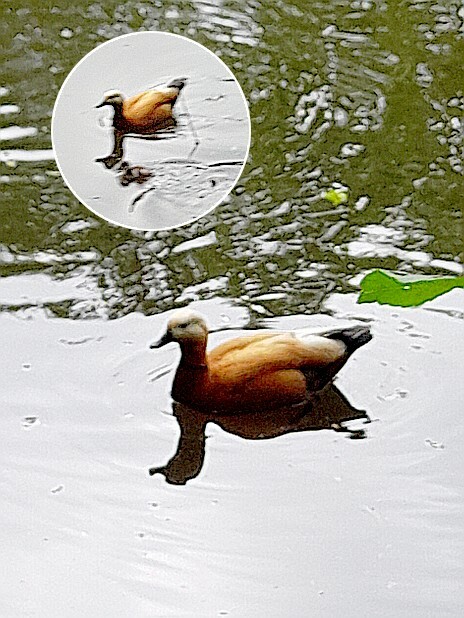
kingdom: Animalia
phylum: Chordata
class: Aves
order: Anseriformes
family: Anatidae
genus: Tadorna
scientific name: Tadorna ferruginea
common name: Ruddy shelduck
